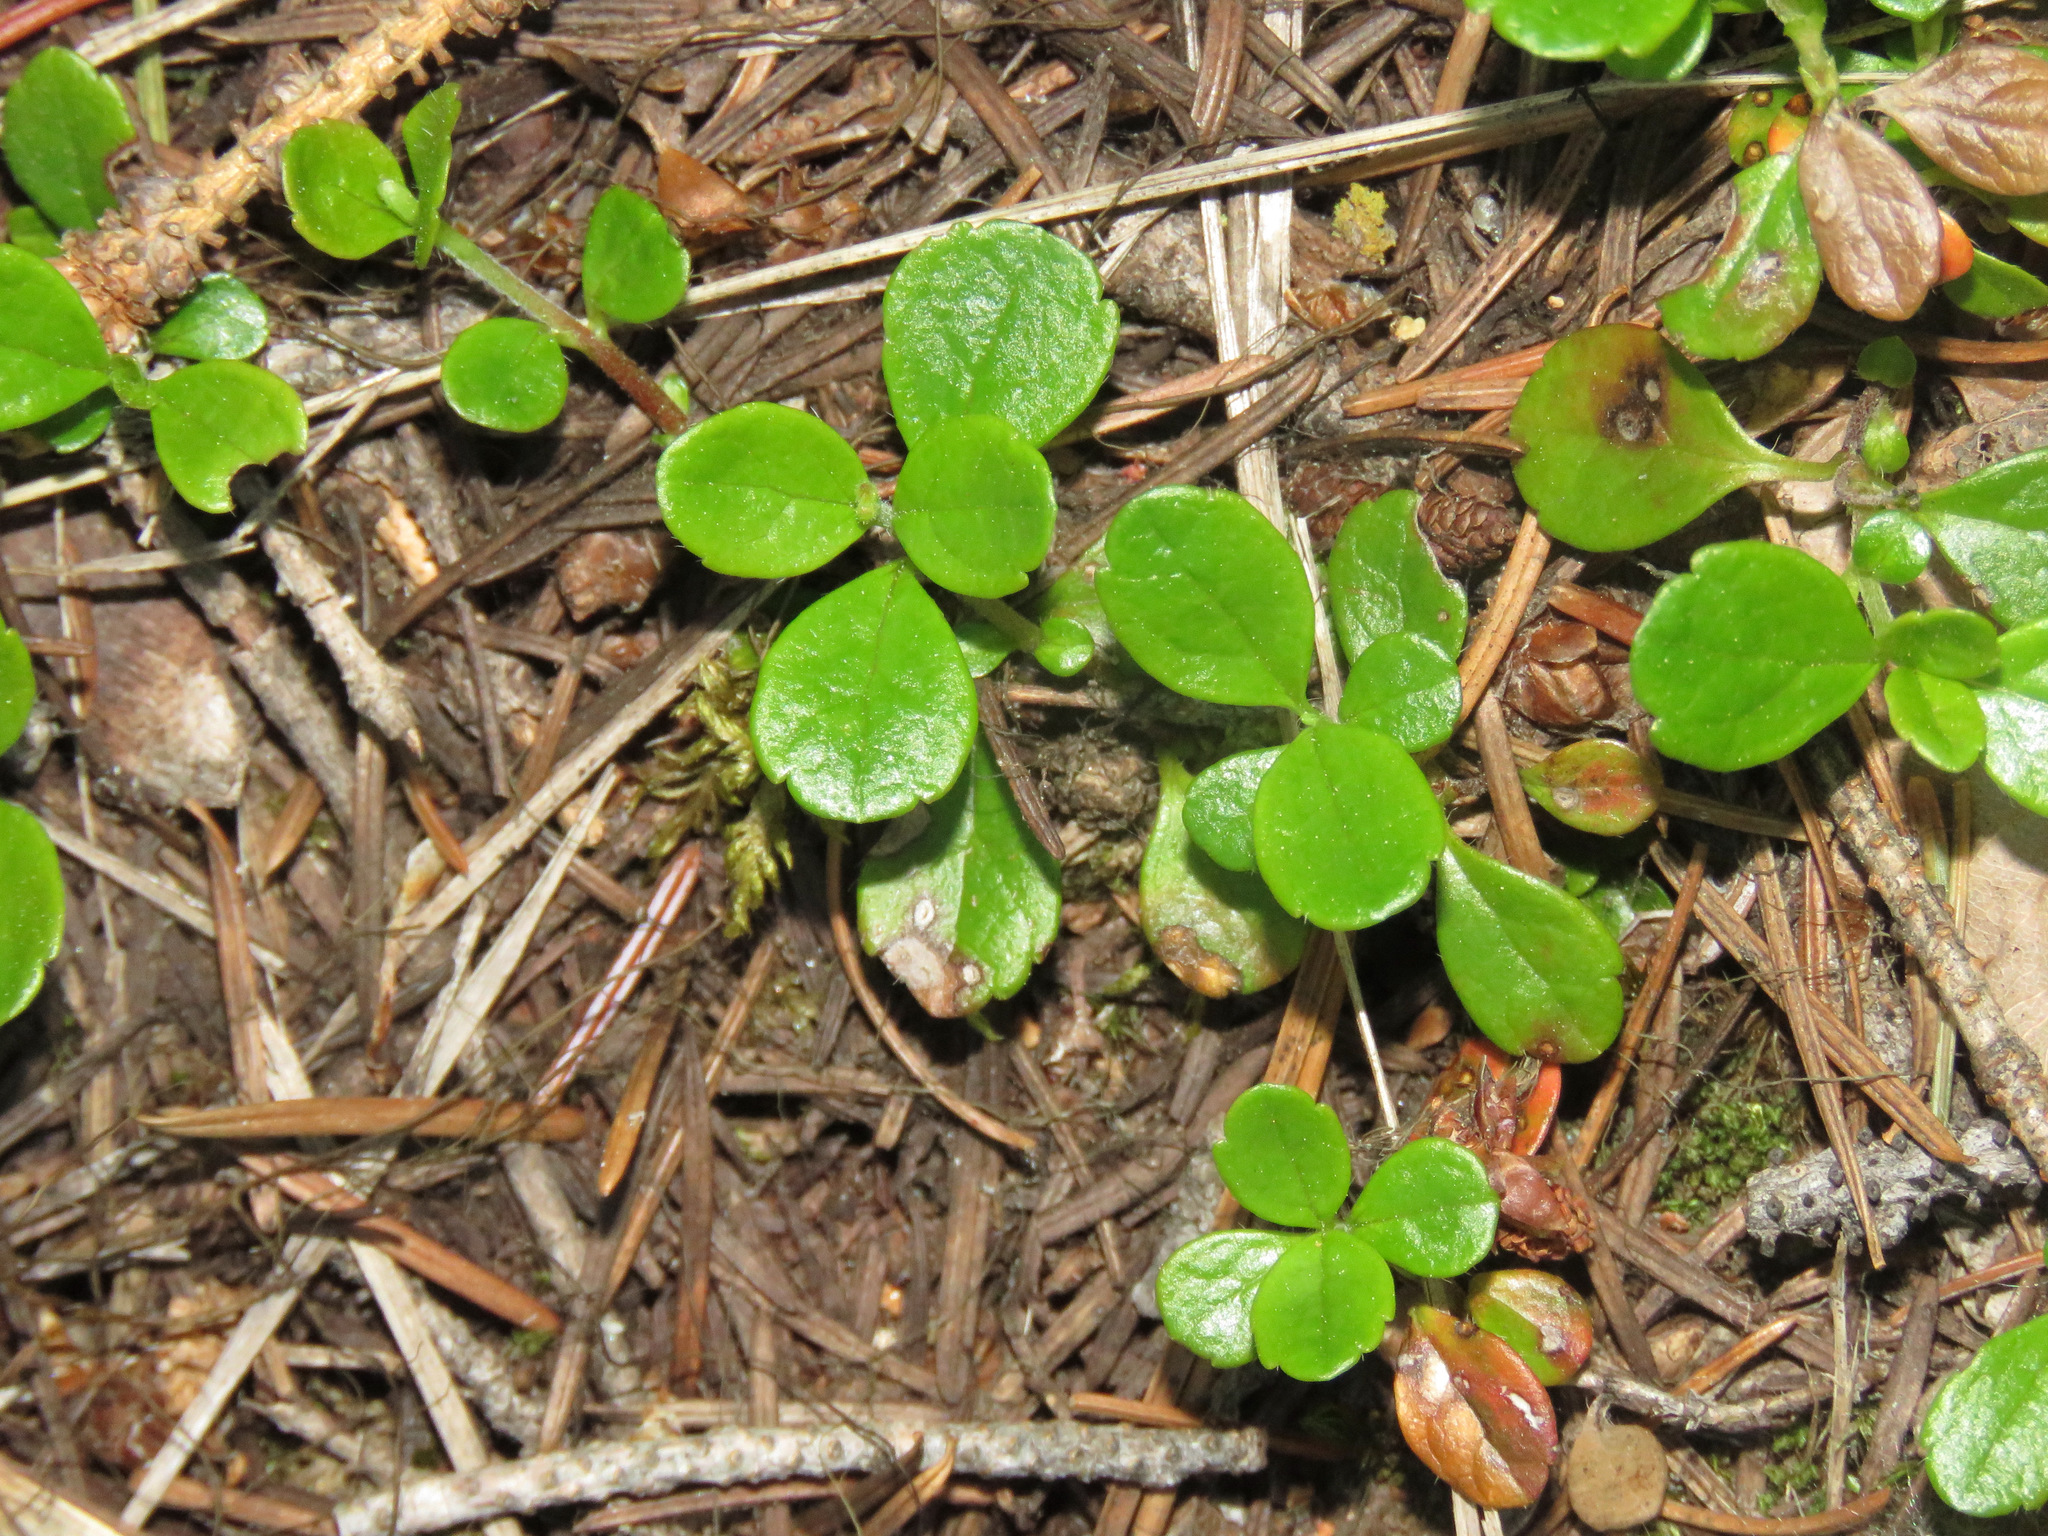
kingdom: Plantae
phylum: Tracheophyta
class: Magnoliopsida
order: Dipsacales
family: Caprifoliaceae
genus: Linnaea
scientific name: Linnaea borealis
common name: Twinflower
